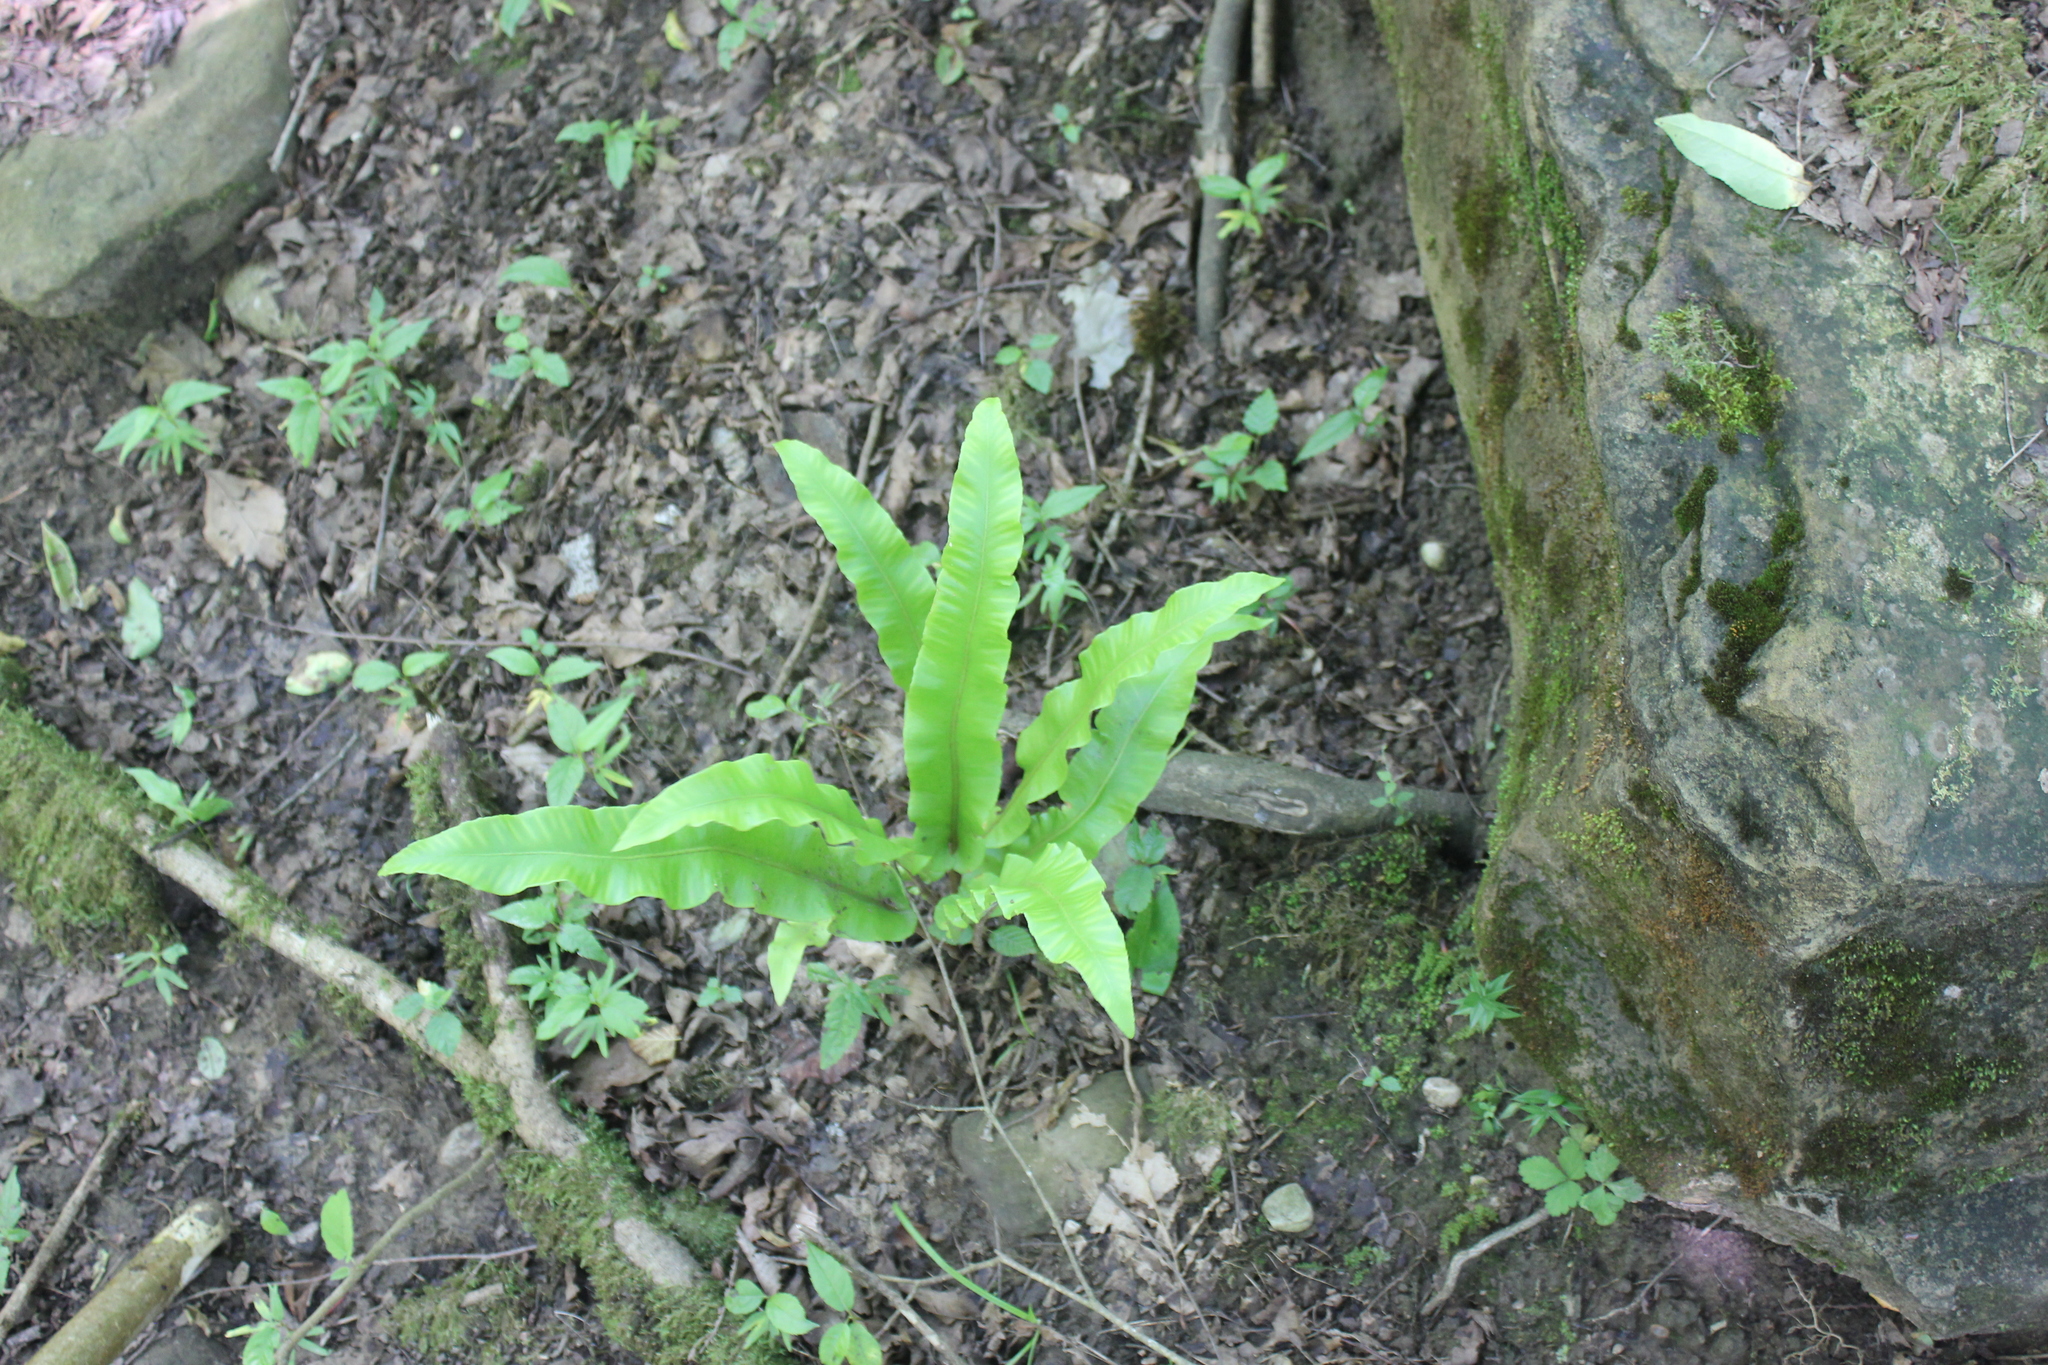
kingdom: Plantae
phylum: Tracheophyta
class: Polypodiopsida
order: Polypodiales
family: Aspleniaceae
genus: Asplenium
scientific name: Asplenium scolopendrium
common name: Hart's-tongue fern
